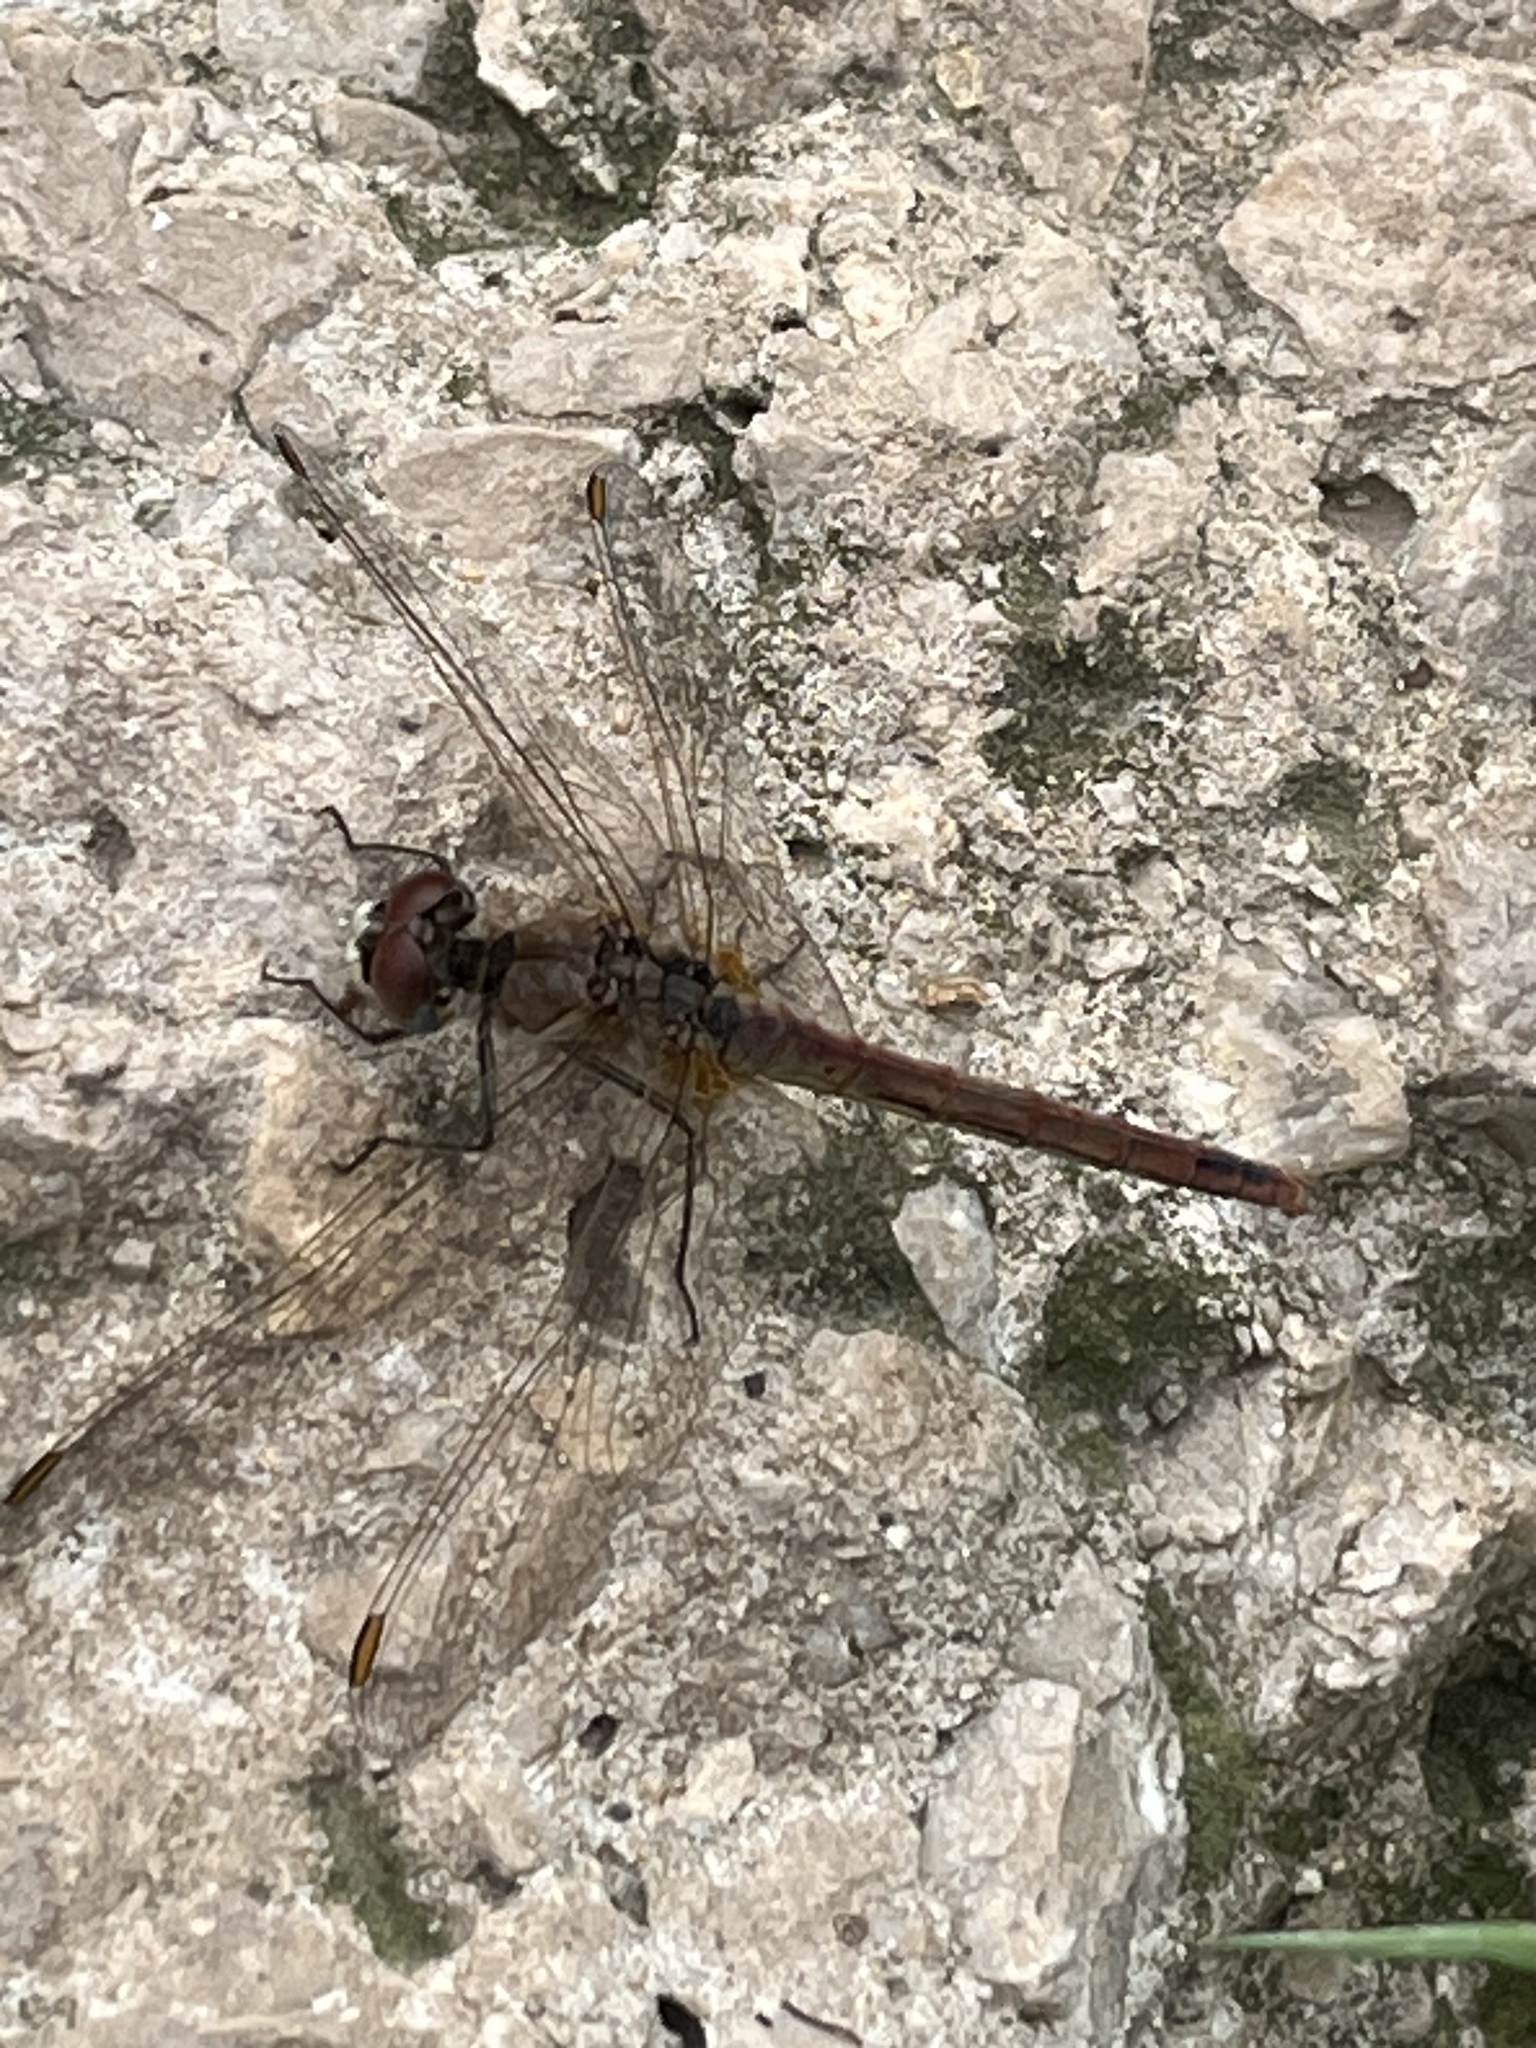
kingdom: Animalia
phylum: Arthropoda
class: Insecta
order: Odonata
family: Libellulidae
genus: Sympetrum
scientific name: Sympetrum fonscolombii
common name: Red-veined darter
